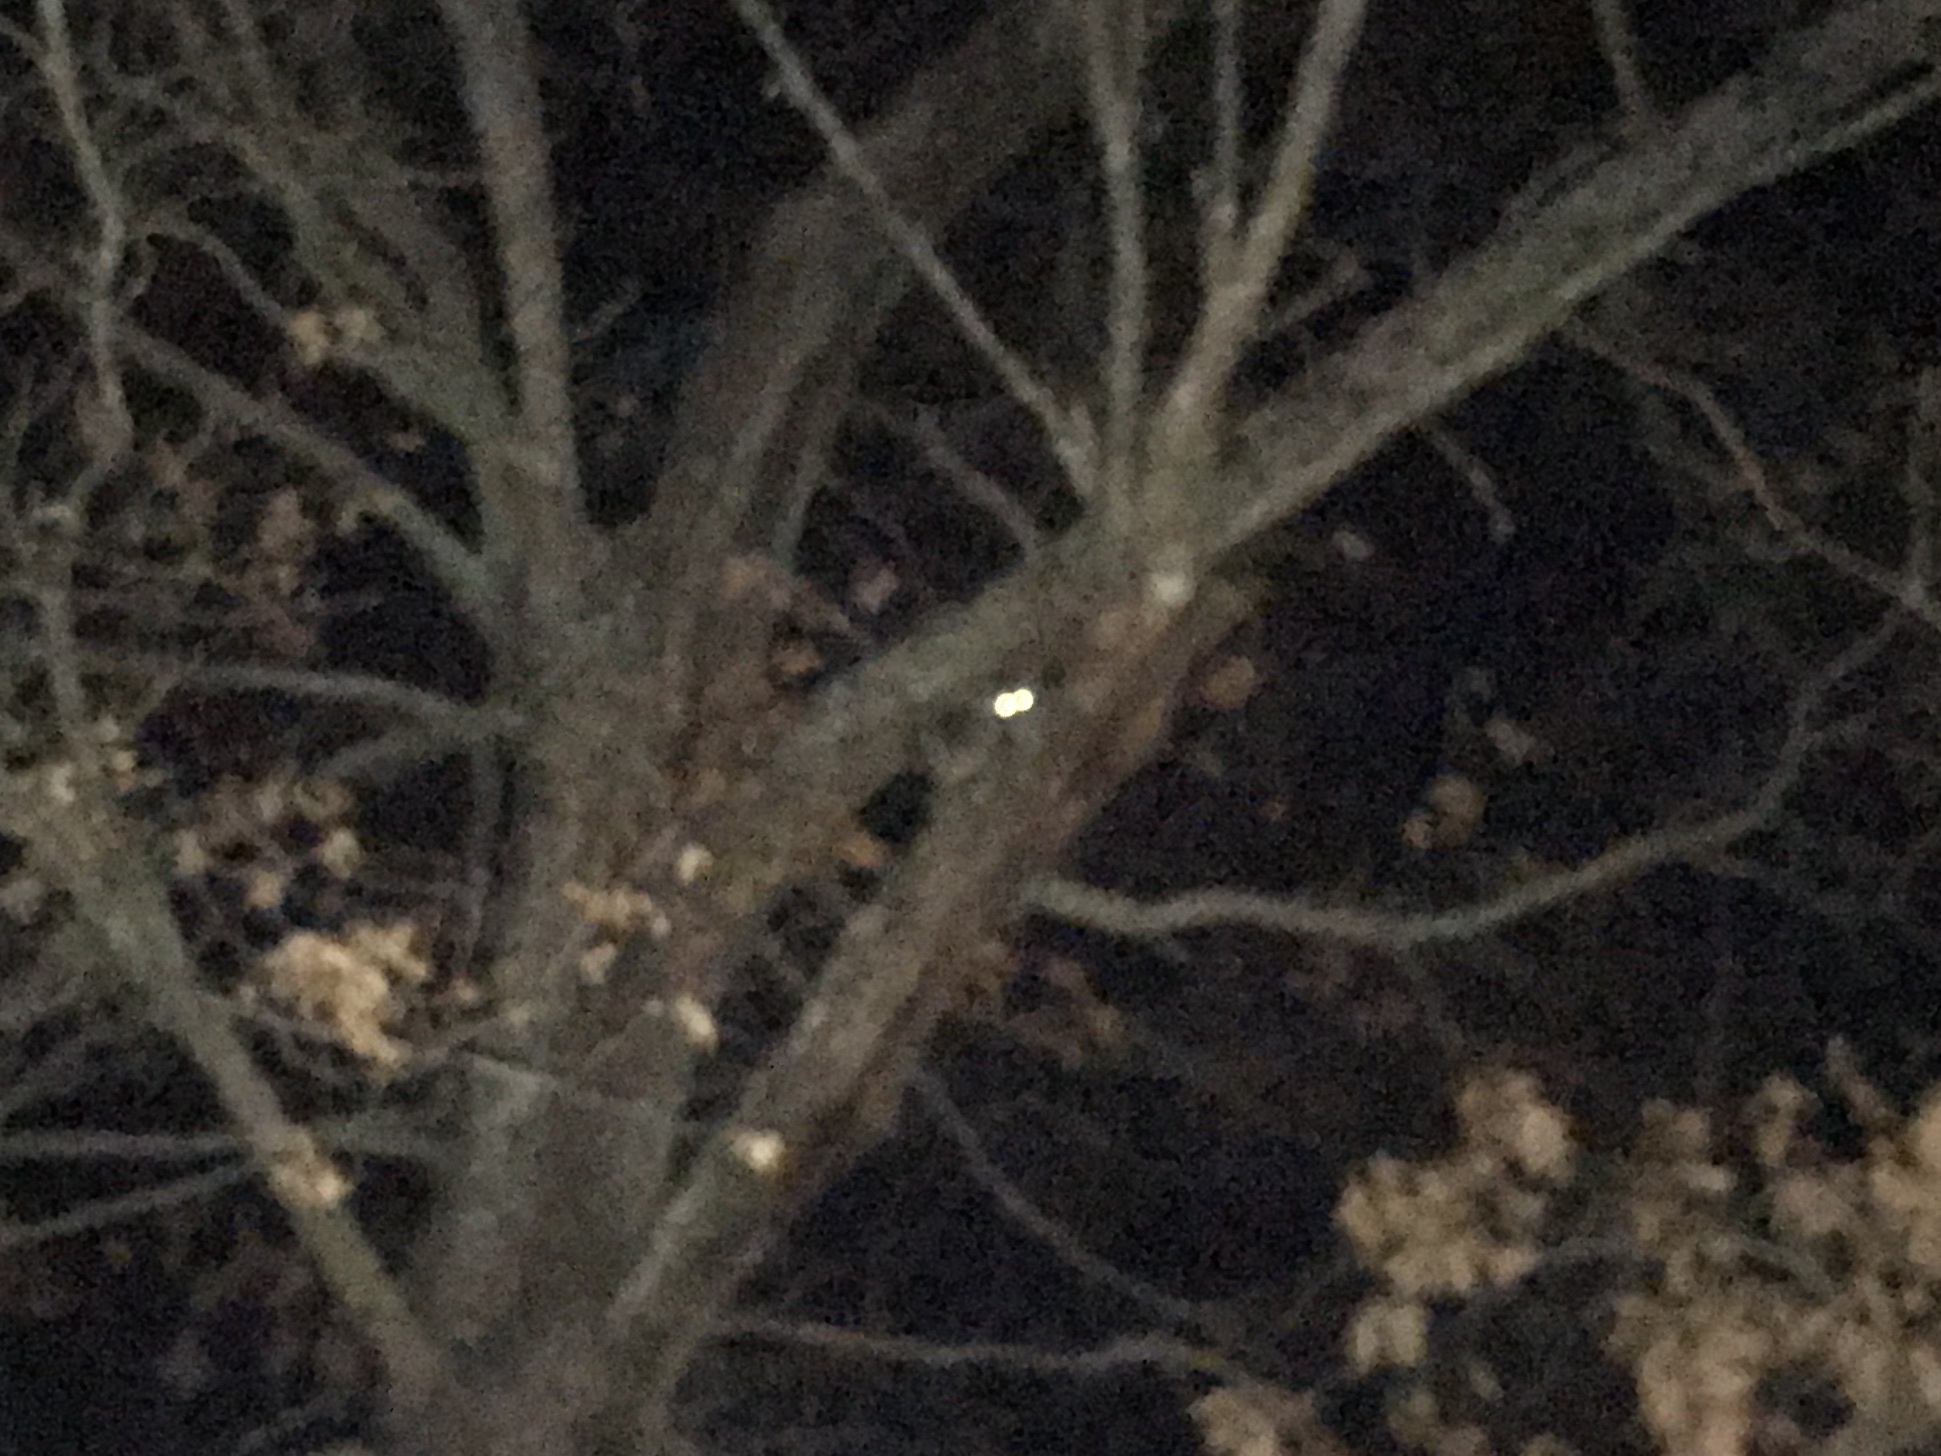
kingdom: Animalia
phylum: Chordata
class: Mammalia
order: Carnivora
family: Procyonidae
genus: Procyon
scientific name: Procyon lotor
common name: Raccoon
